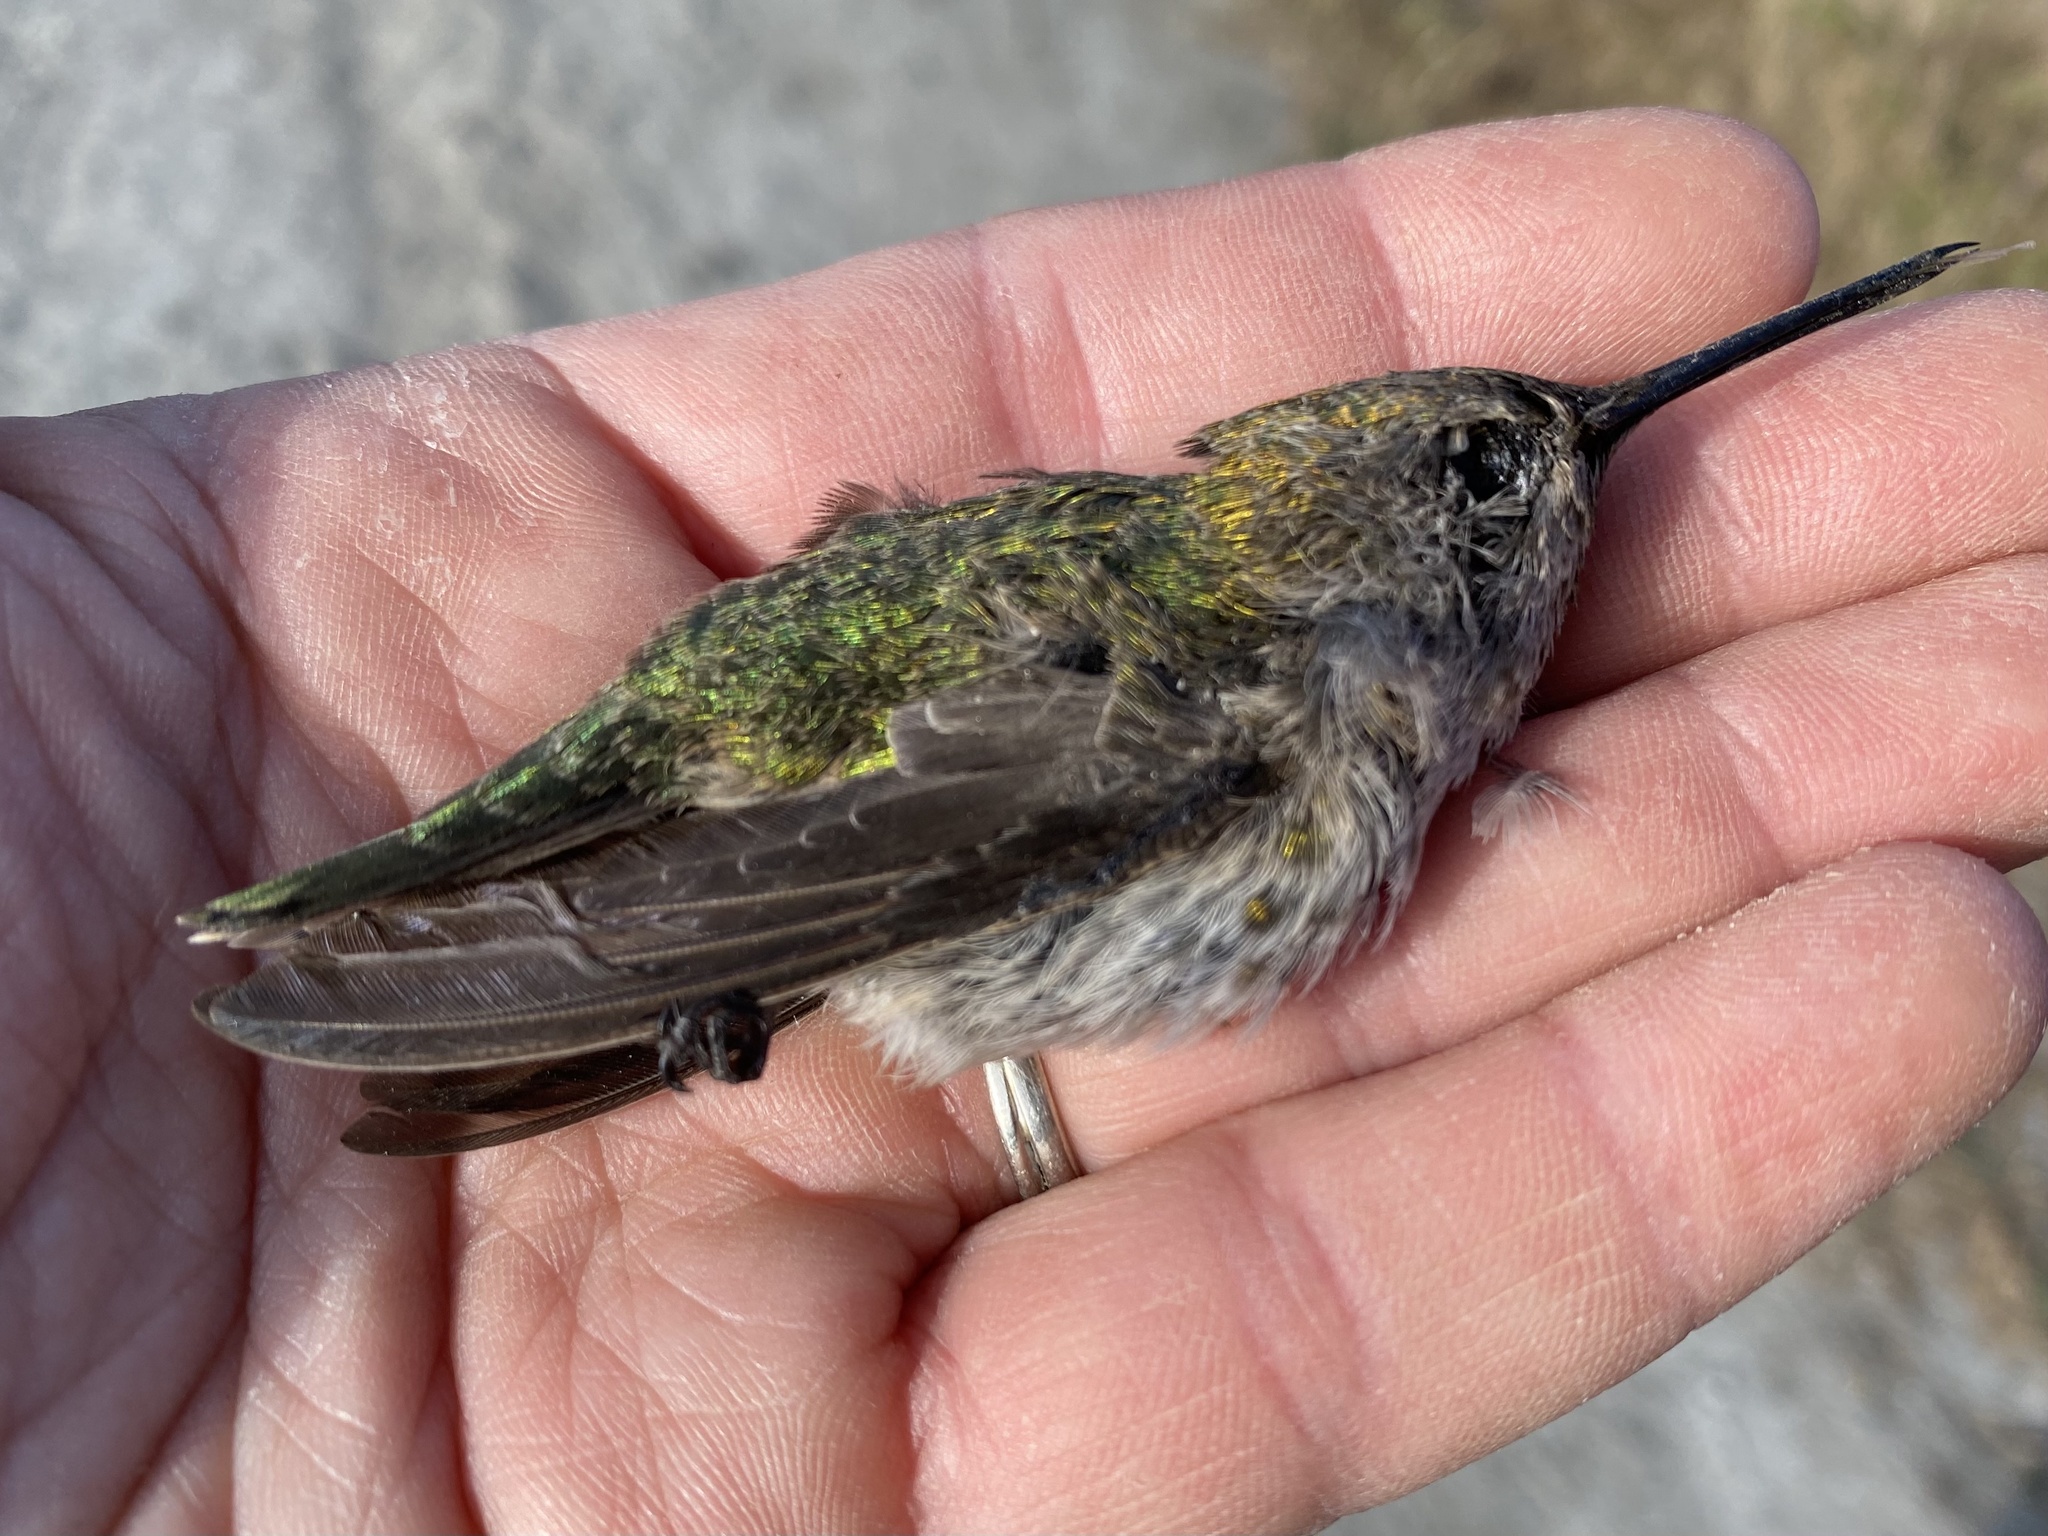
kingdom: Animalia
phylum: Chordata
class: Aves
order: Apodiformes
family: Trochilidae
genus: Calypte
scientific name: Calypte anna
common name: Anna's hummingbird
